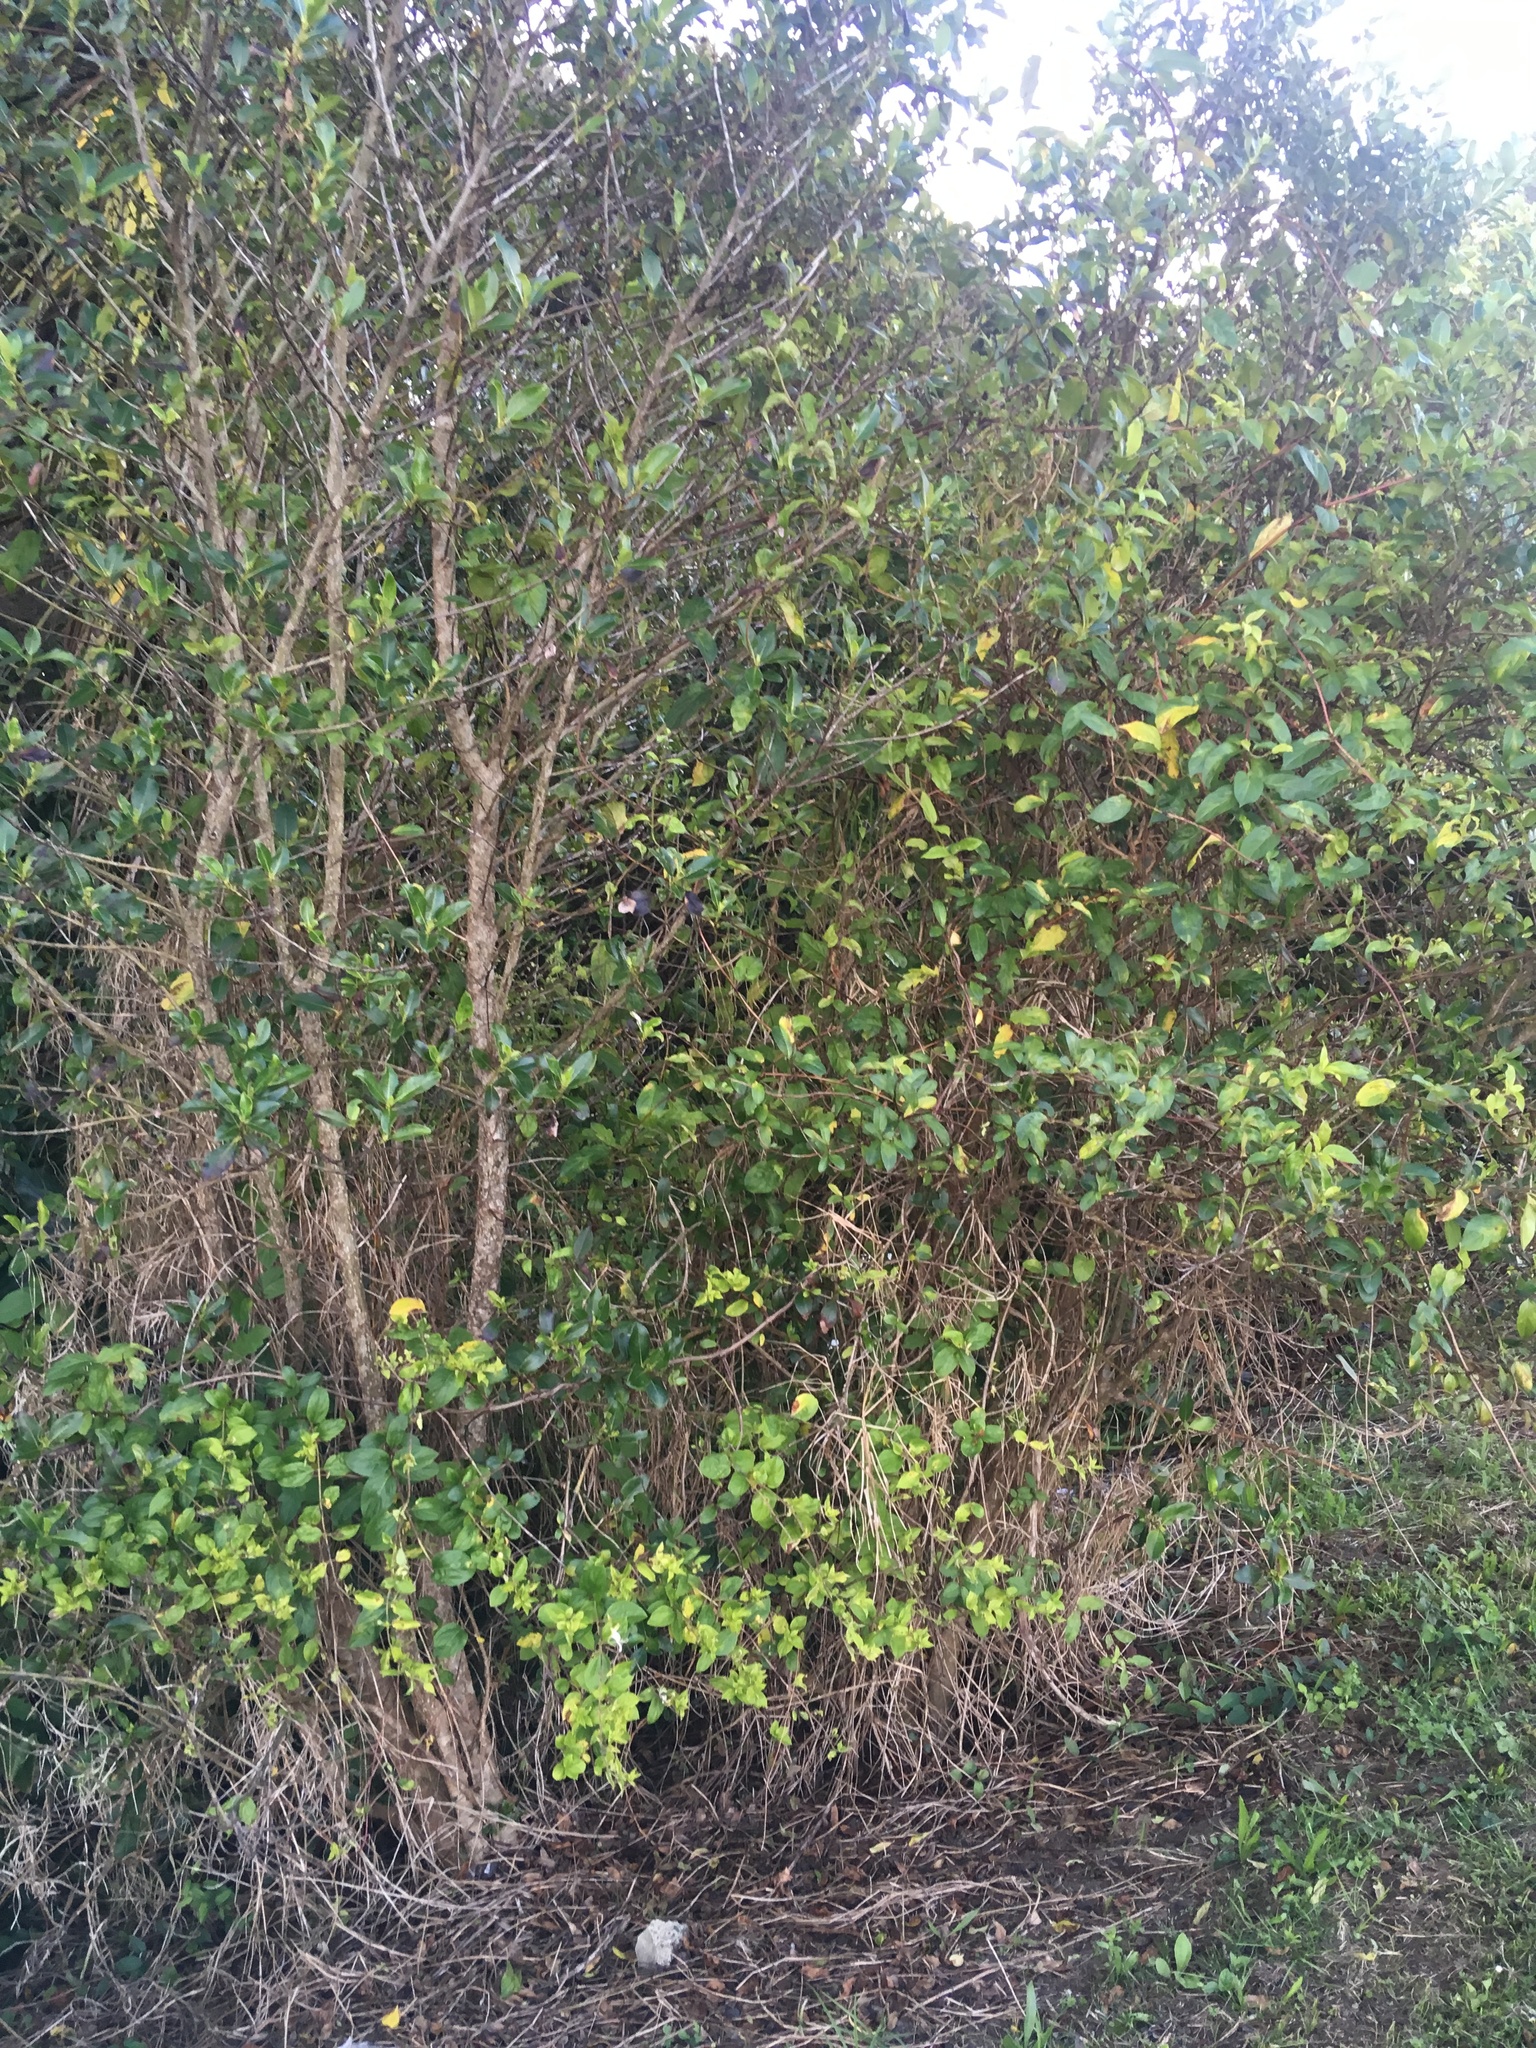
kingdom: Plantae
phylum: Tracheophyta
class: Magnoliopsida
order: Dipsacales
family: Caprifoliaceae
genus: Lonicera
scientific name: Lonicera japonica
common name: Japanese honeysuckle
